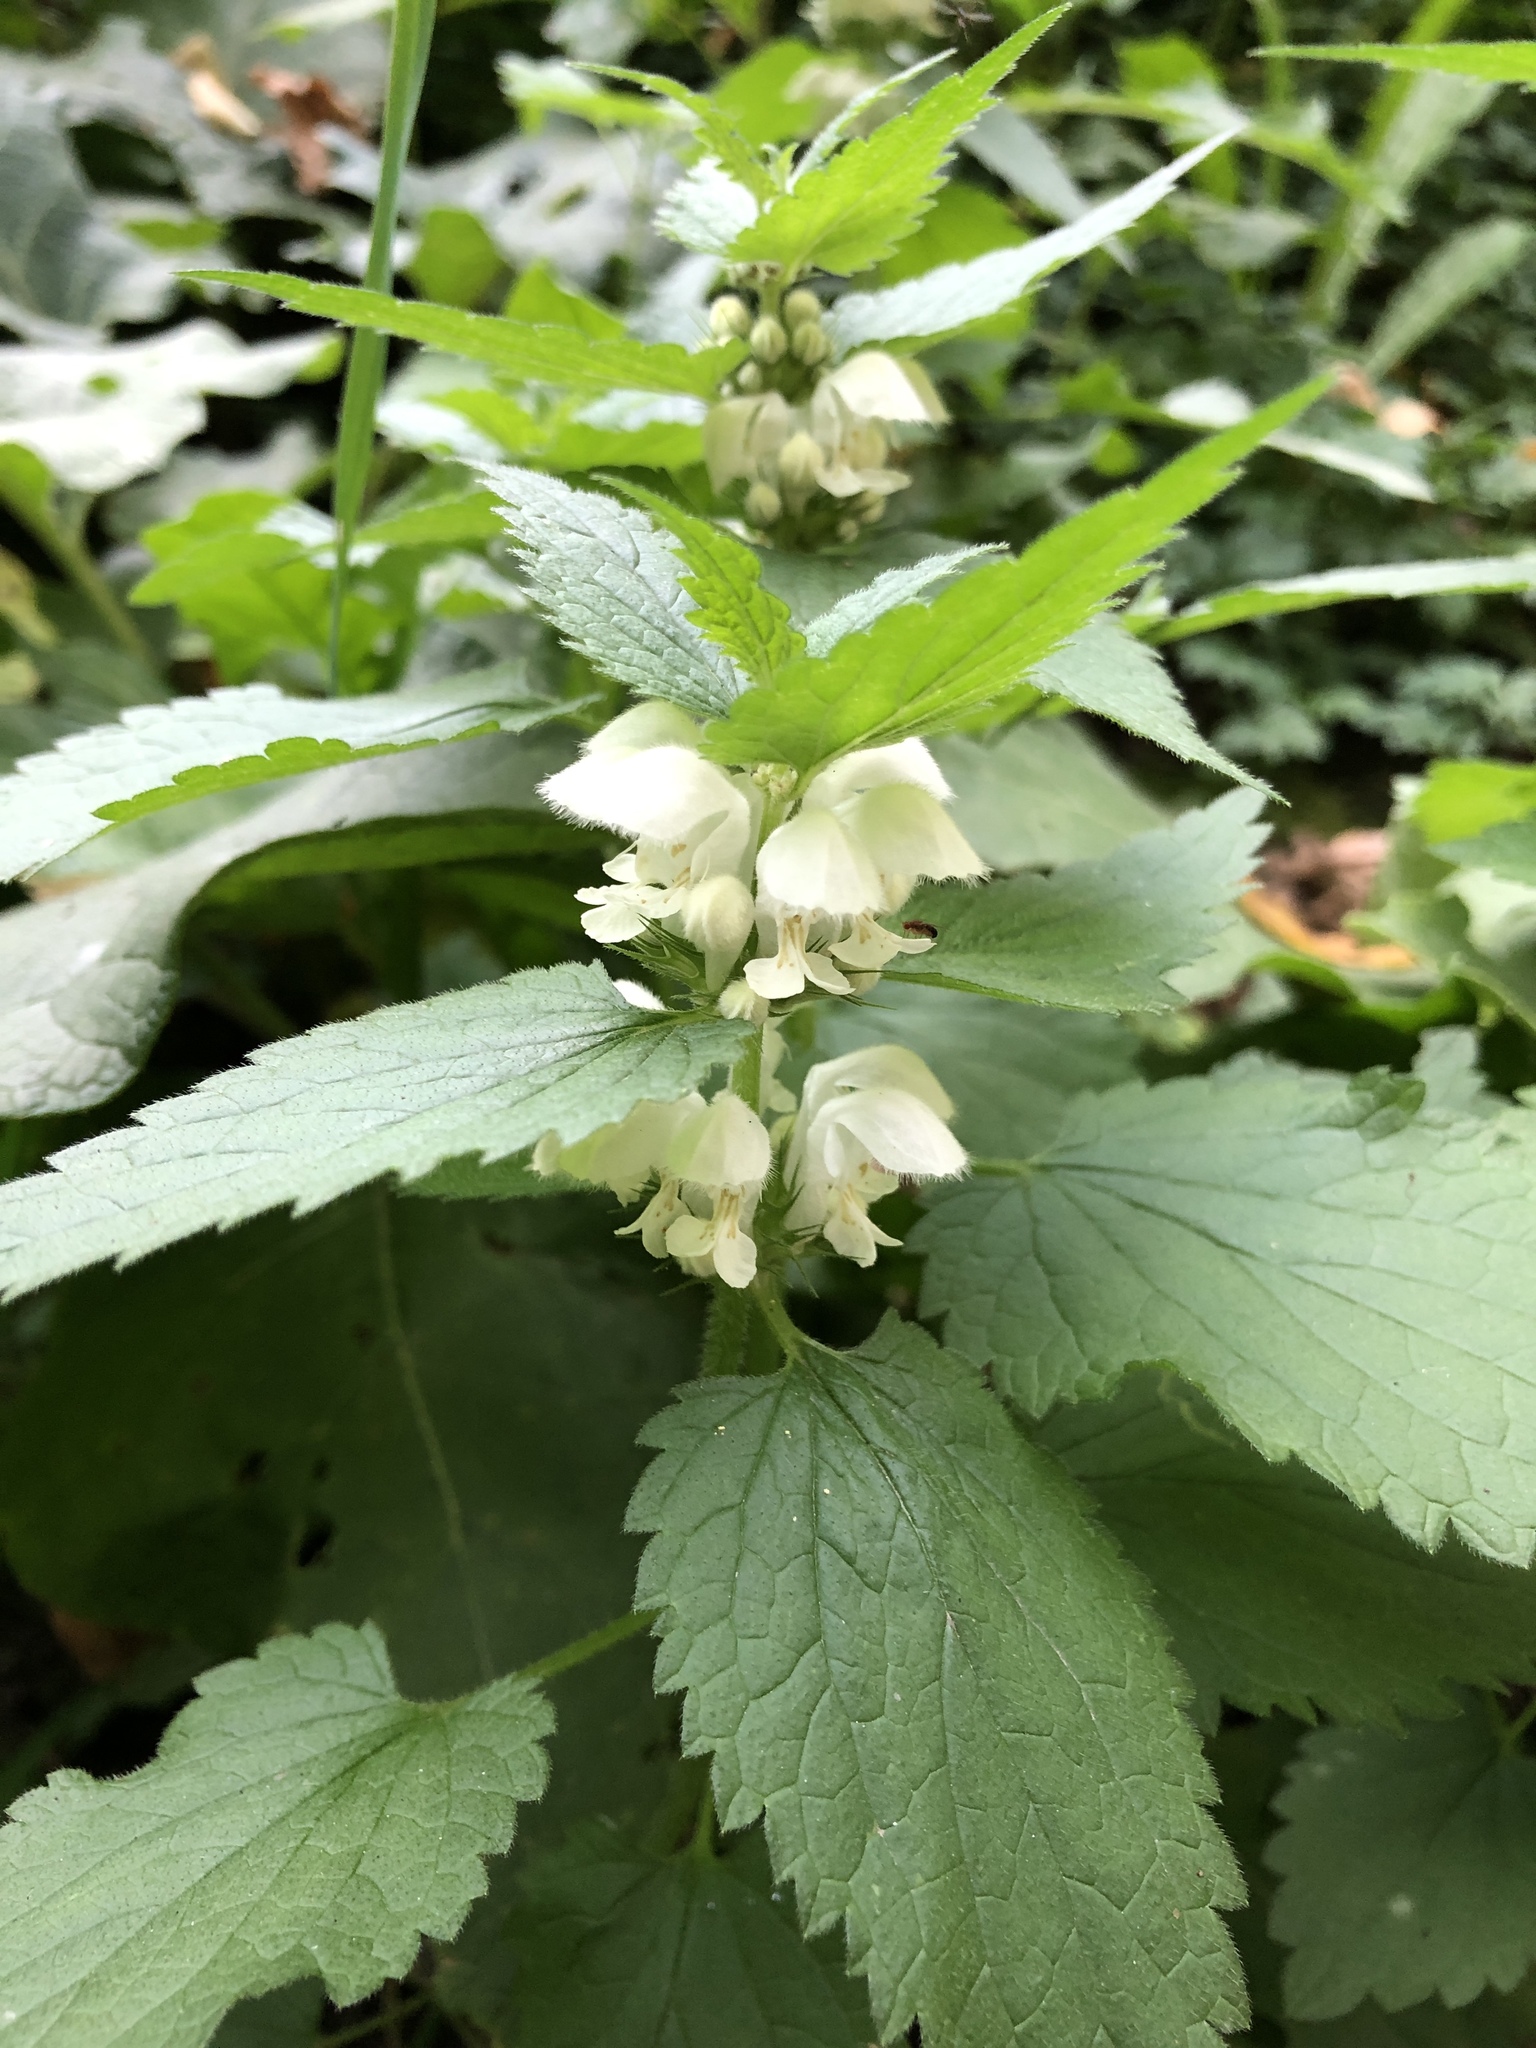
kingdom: Plantae
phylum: Tracheophyta
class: Magnoliopsida
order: Lamiales
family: Lamiaceae
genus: Lamium
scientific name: Lamium album
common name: White dead-nettle
